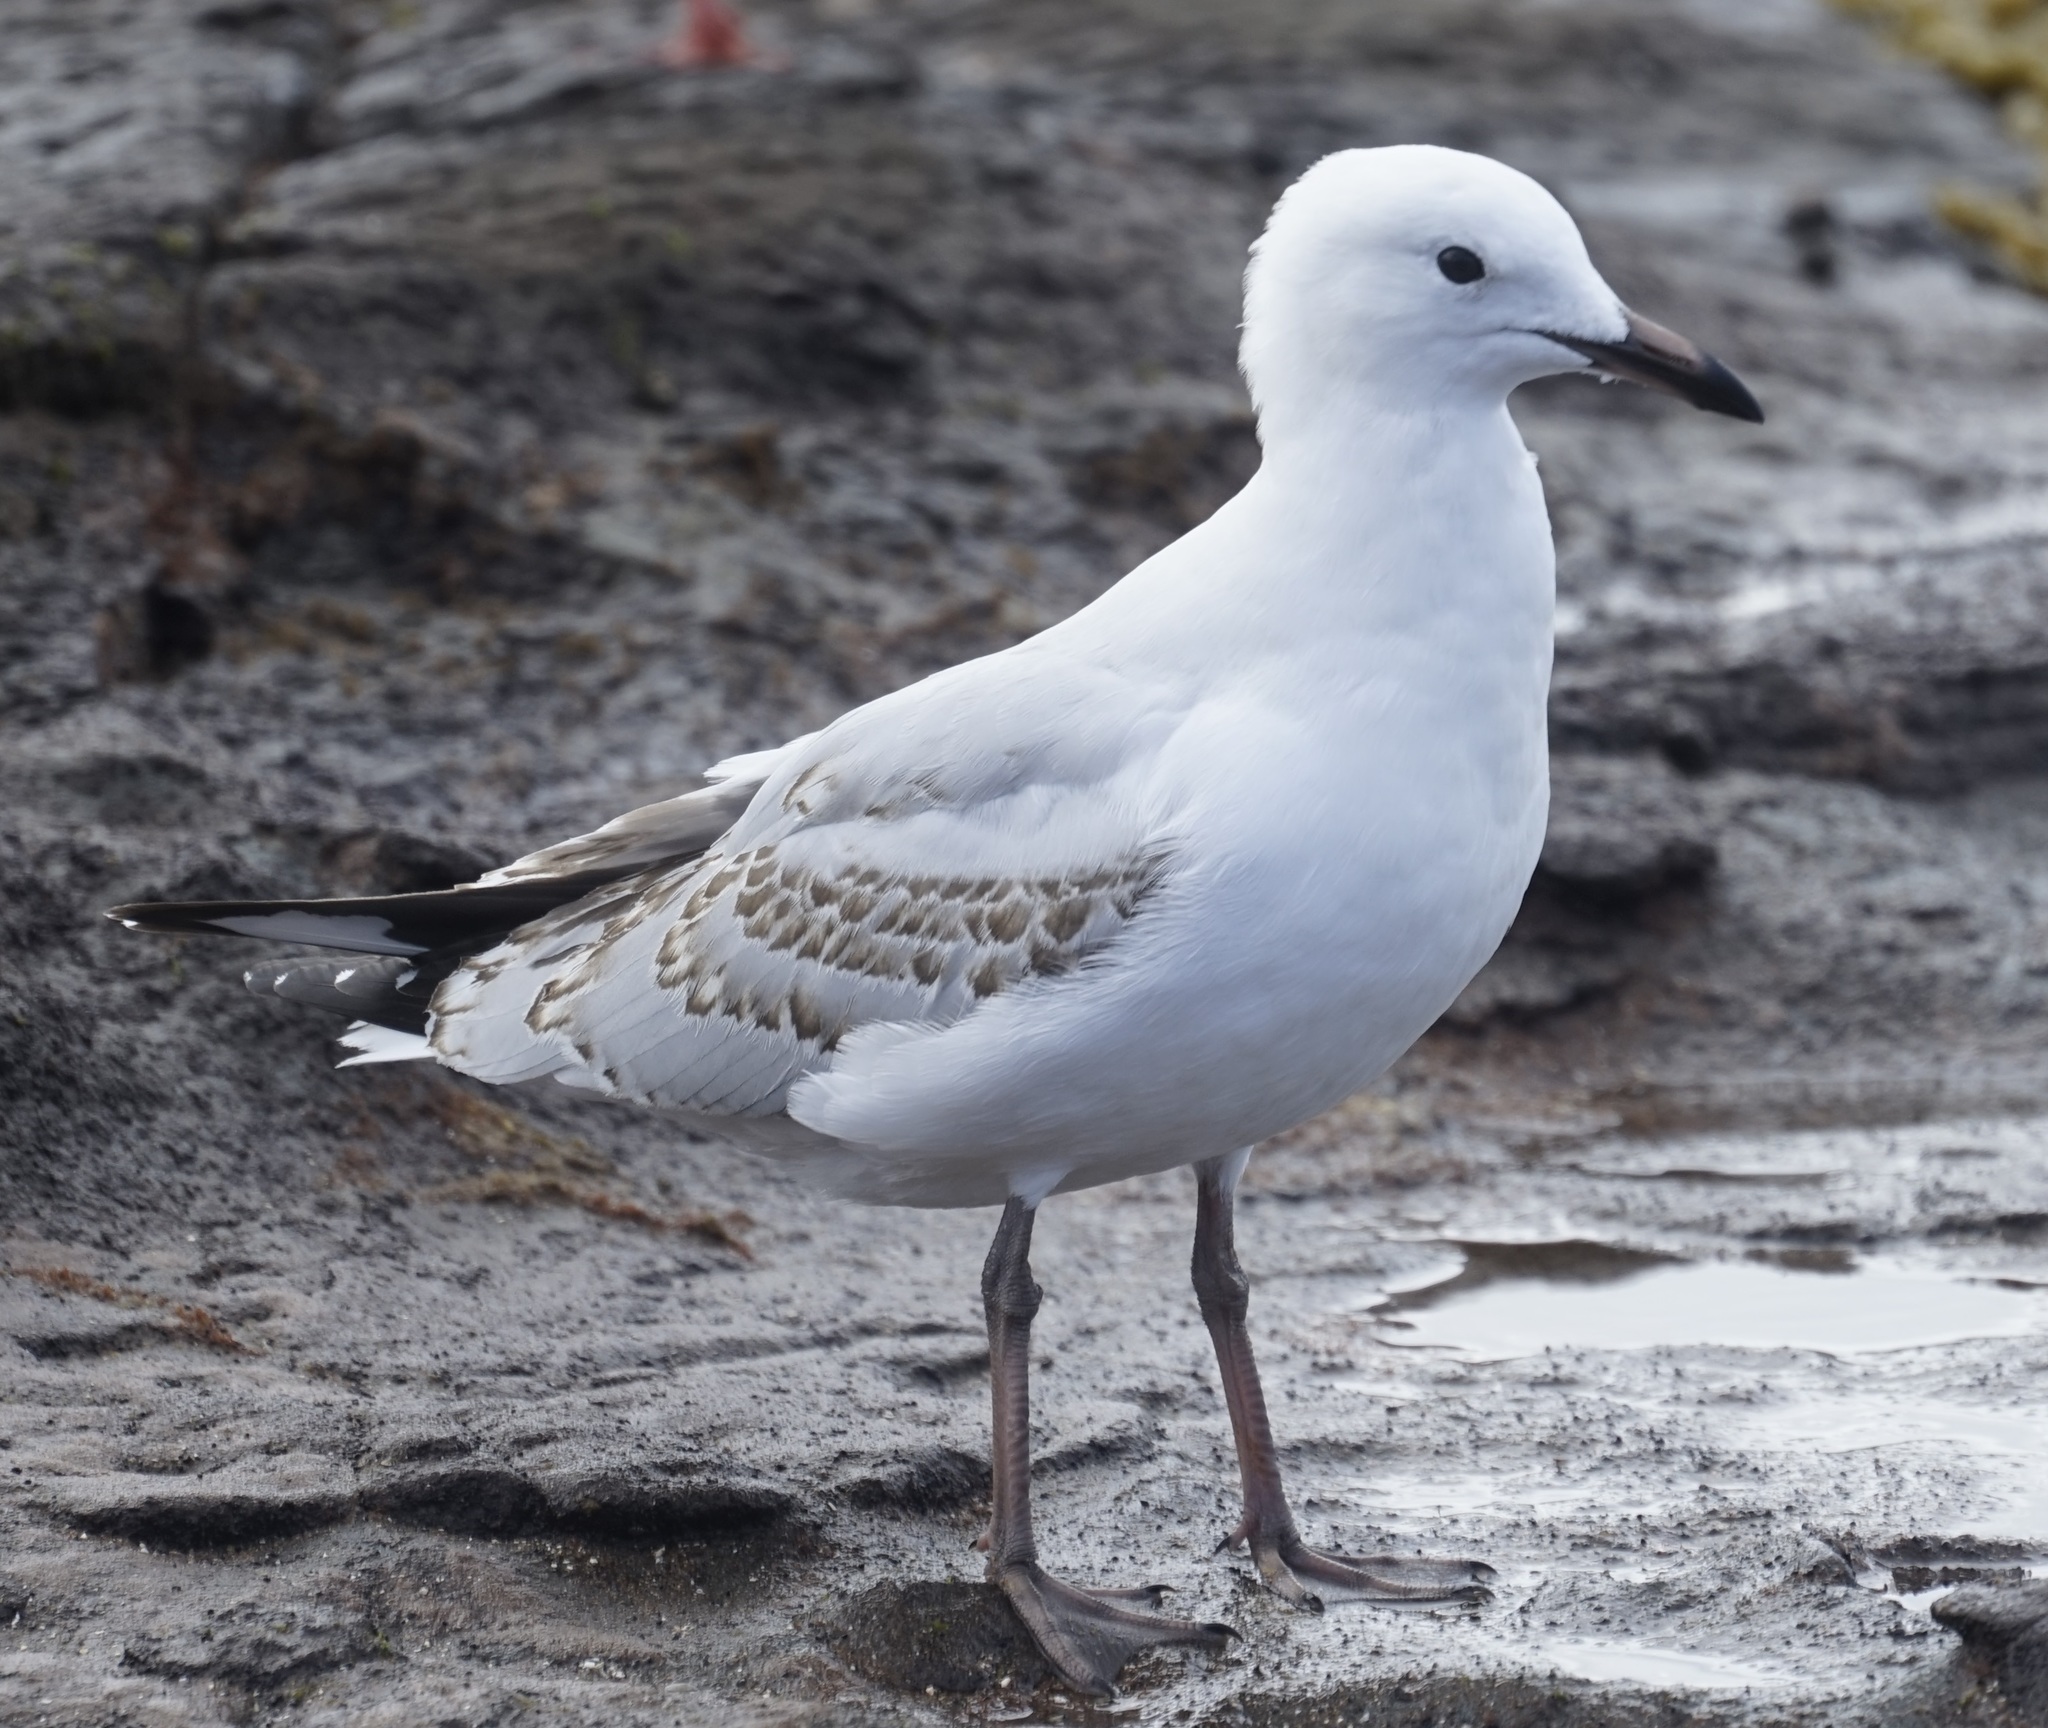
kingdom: Animalia
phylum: Chordata
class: Aves
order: Charadriiformes
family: Laridae
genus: Chroicocephalus
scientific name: Chroicocephalus novaehollandiae
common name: Silver gull
